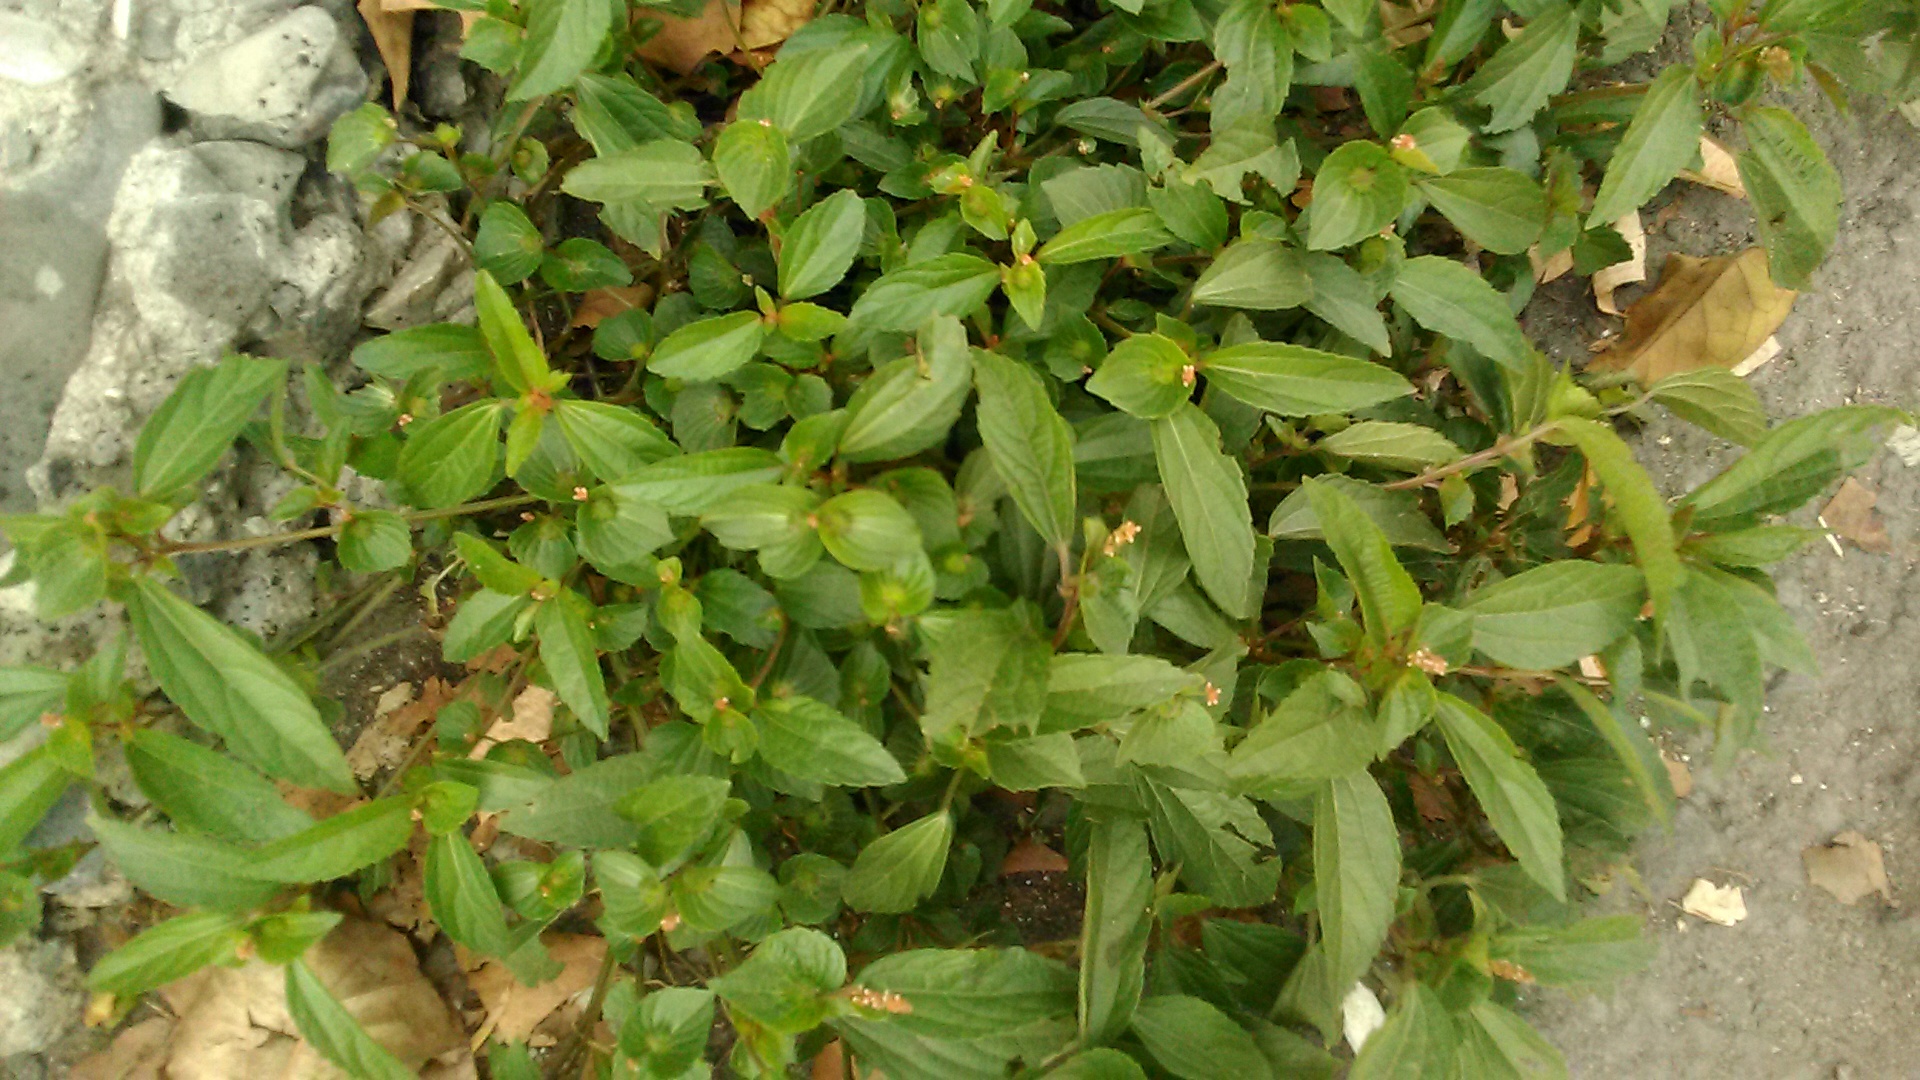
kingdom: Plantae
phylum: Tracheophyta
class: Magnoliopsida
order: Malpighiales
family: Euphorbiaceae
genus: Acalypha
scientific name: Acalypha australis
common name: Asian copperleaf
